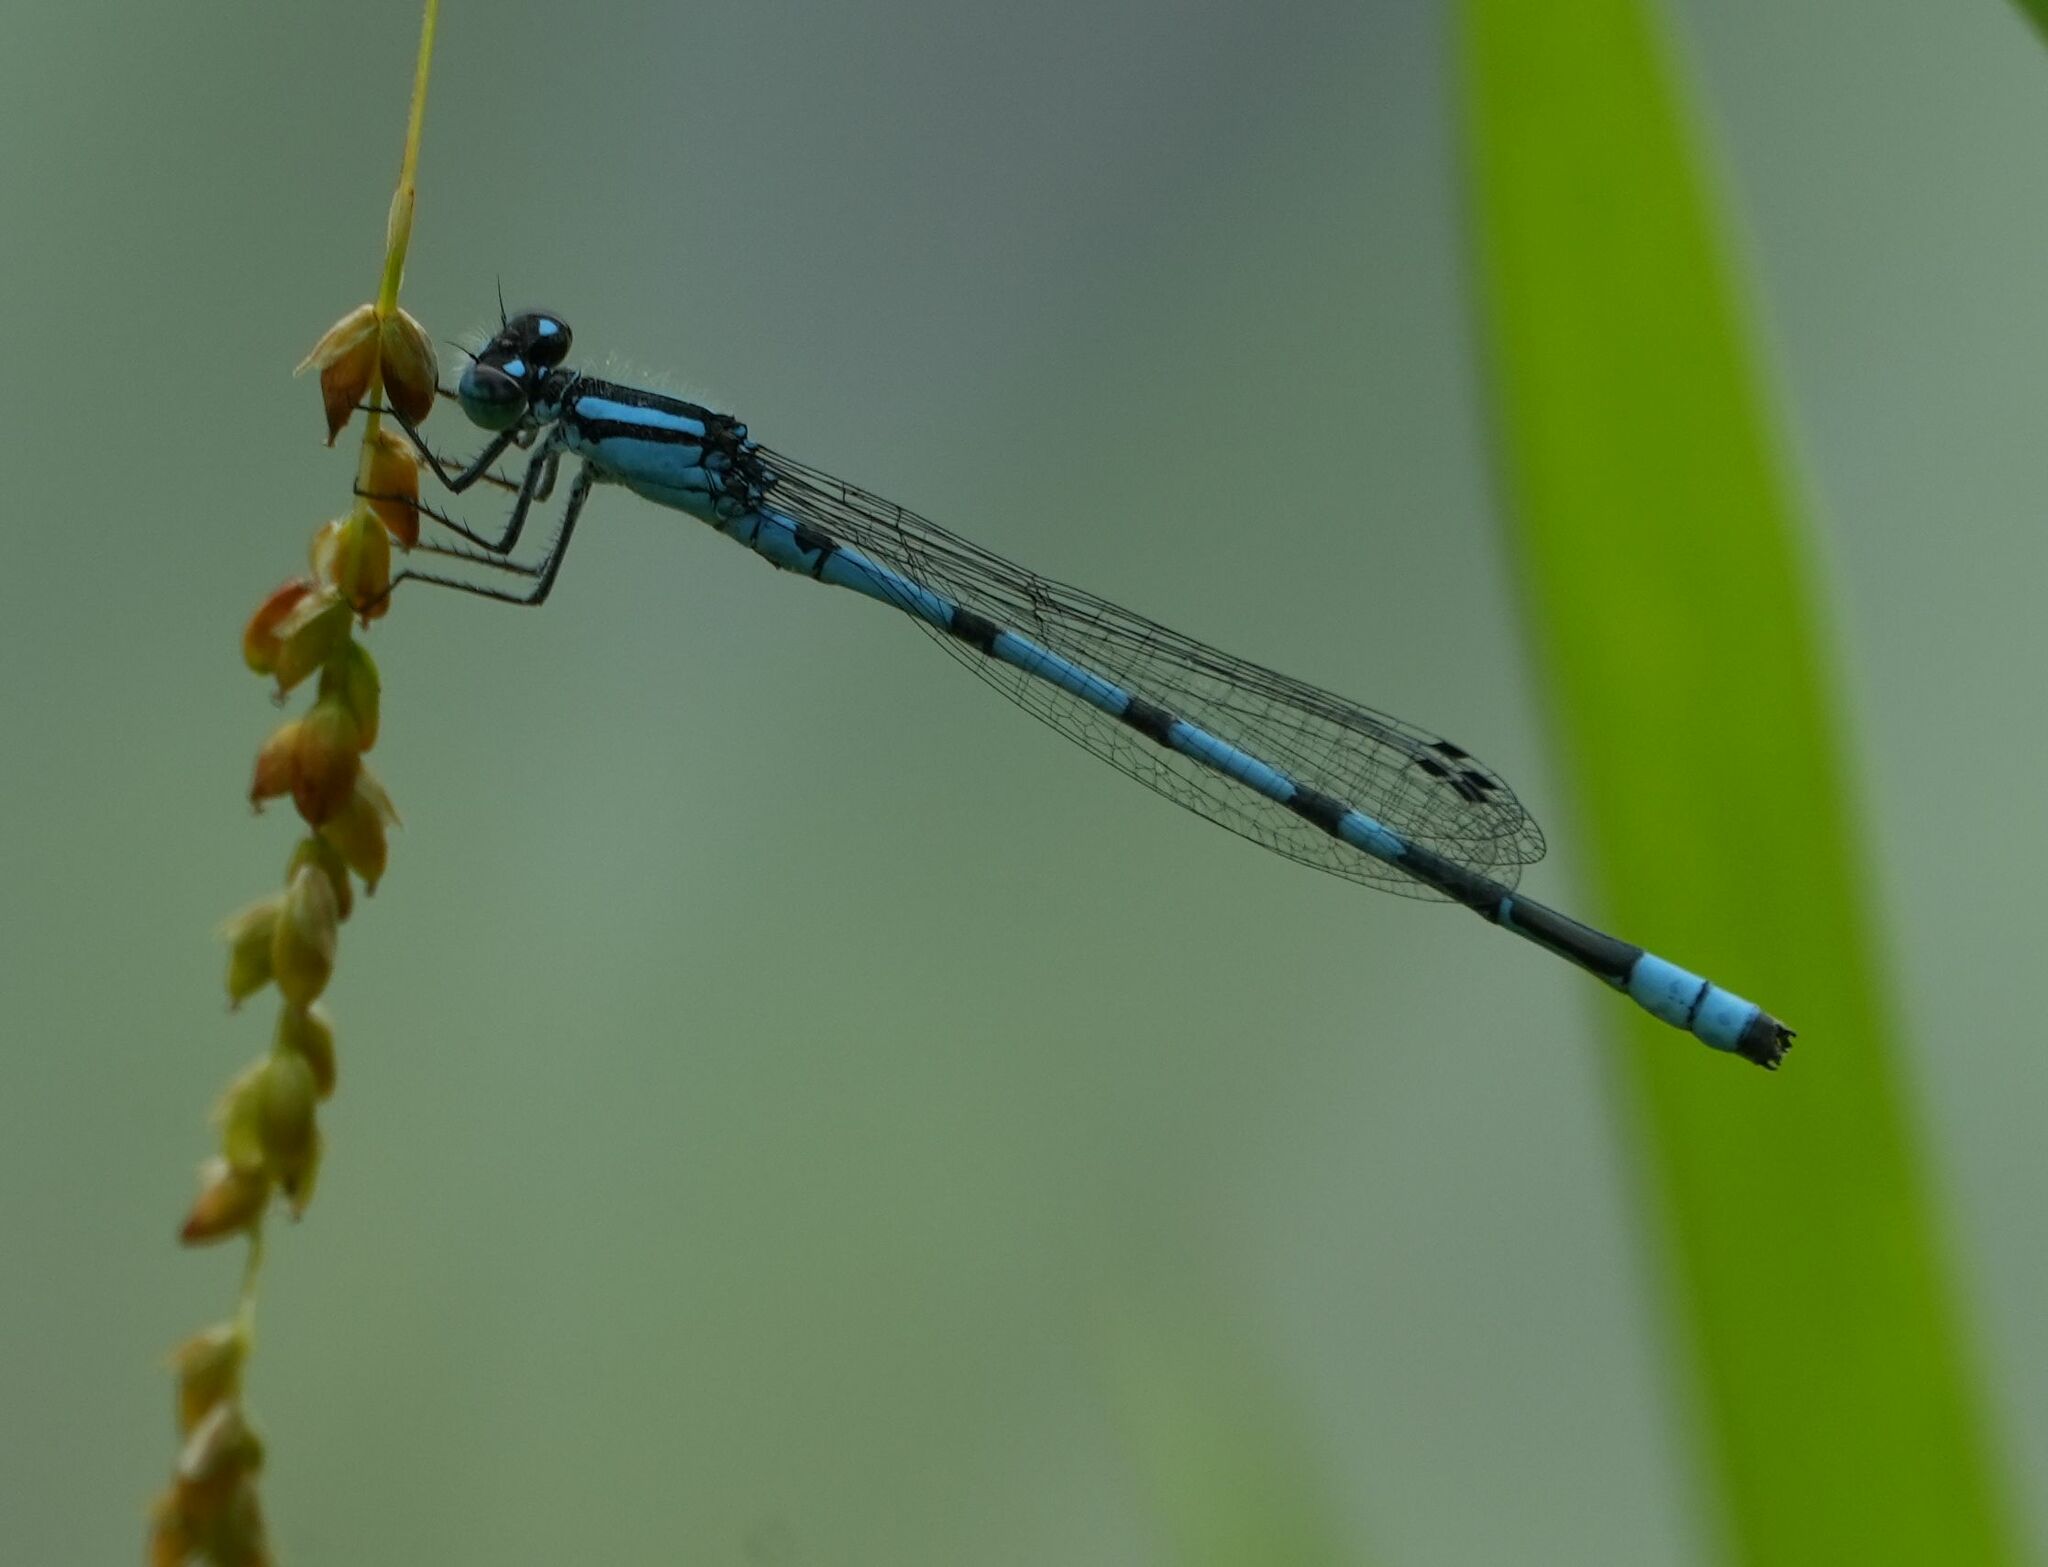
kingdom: Animalia
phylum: Arthropoda
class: Insecta
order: Odonata
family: Coenagrionidae
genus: Enallagma
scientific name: Enallagma ebrium
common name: Marsh bluet
